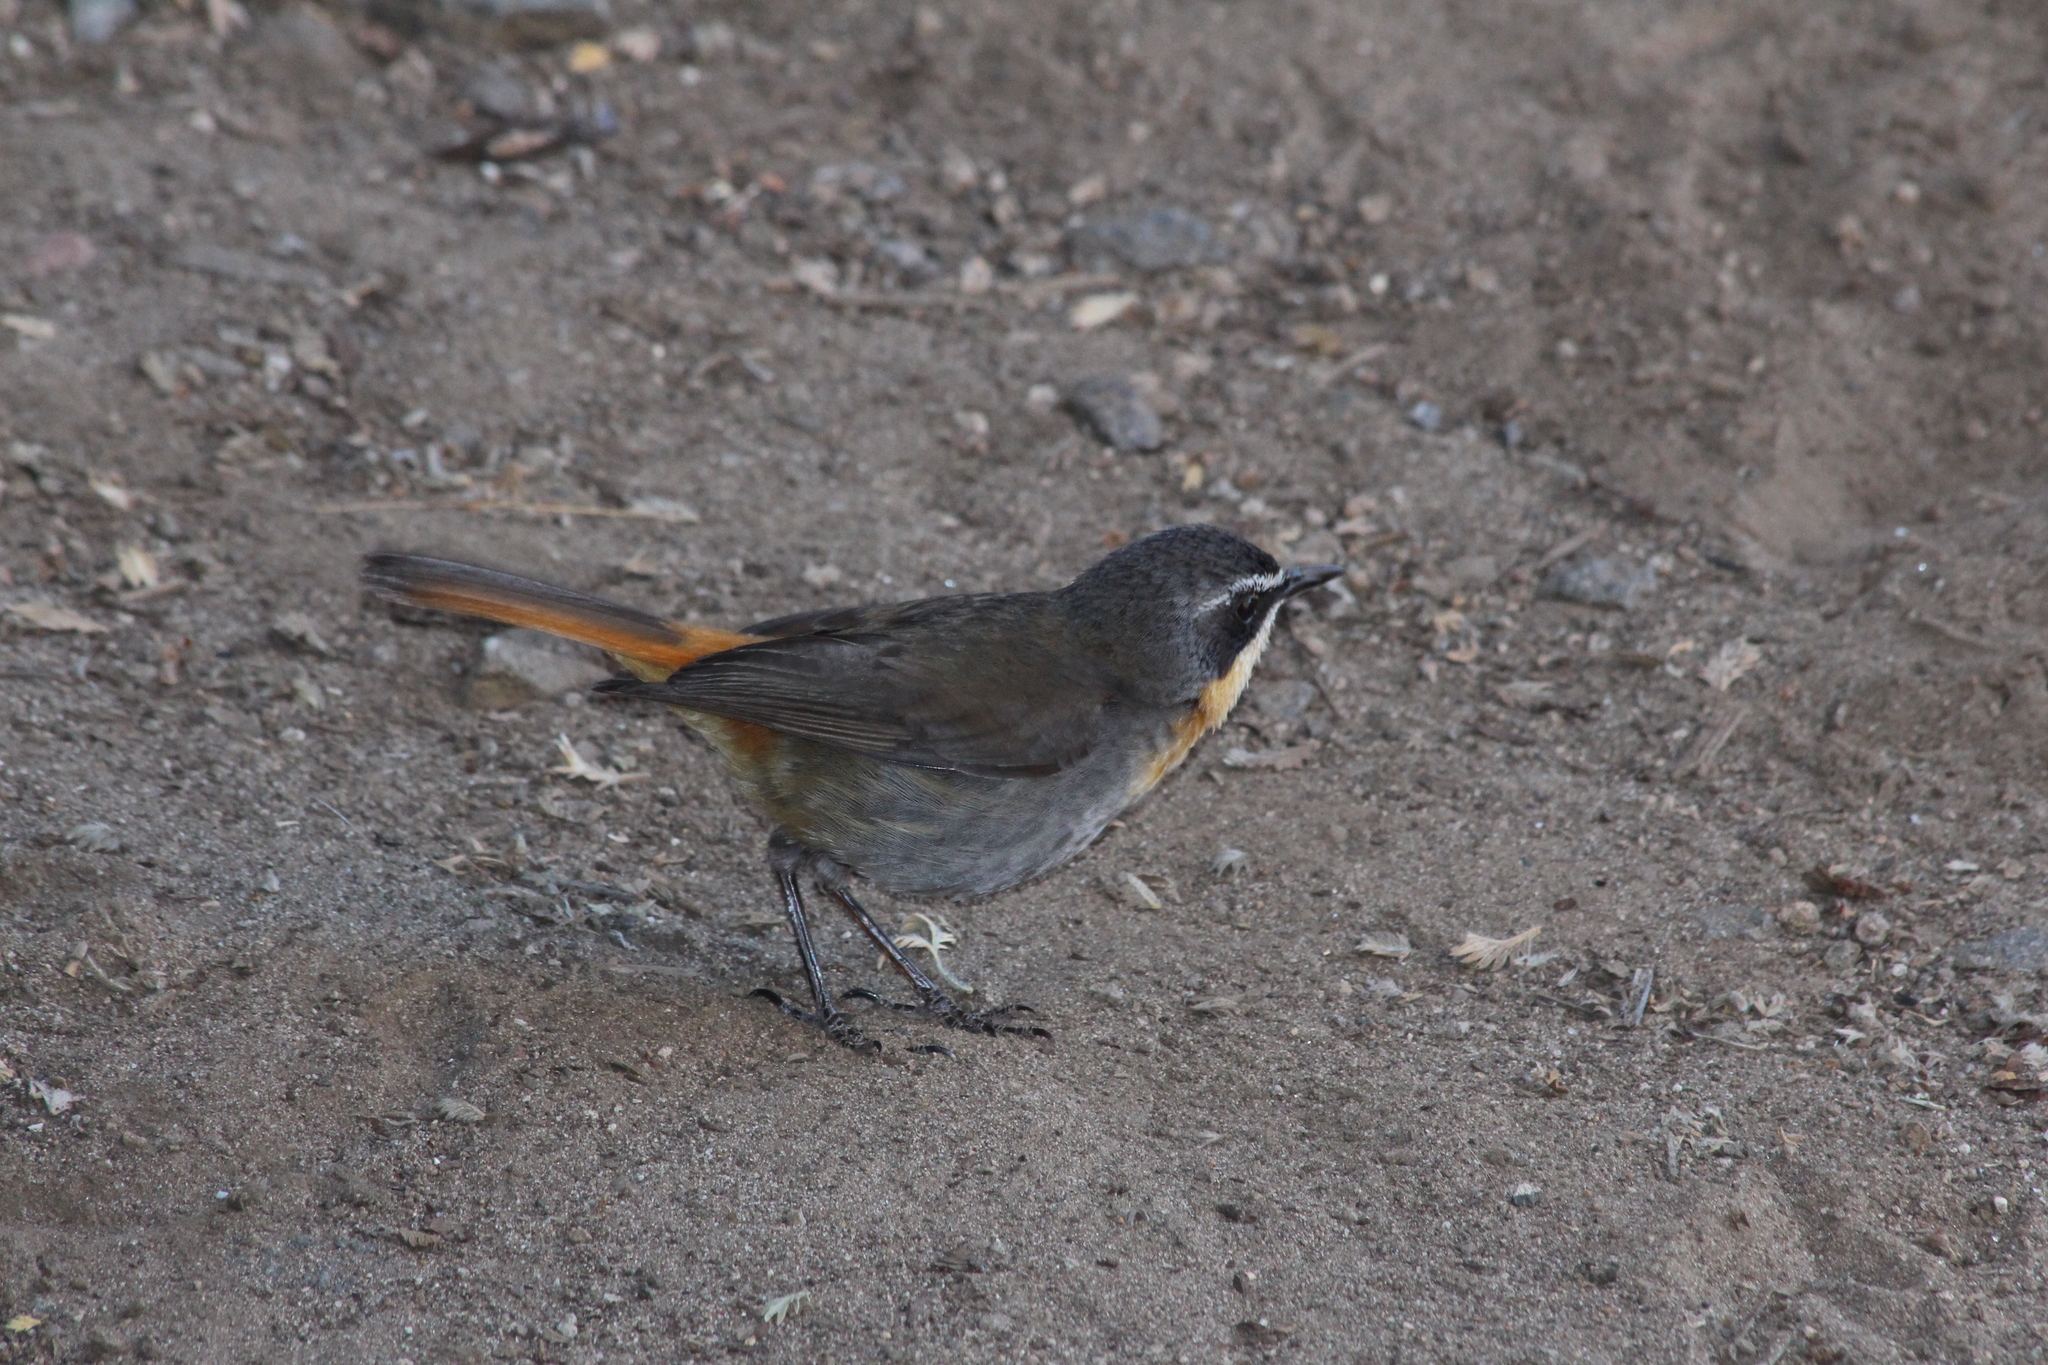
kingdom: Animalia
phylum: Chordata
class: Aves
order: Passeriformes
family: Muscicapidae
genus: Cossypha
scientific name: Cossypha caffra
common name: Cape robin-chat
